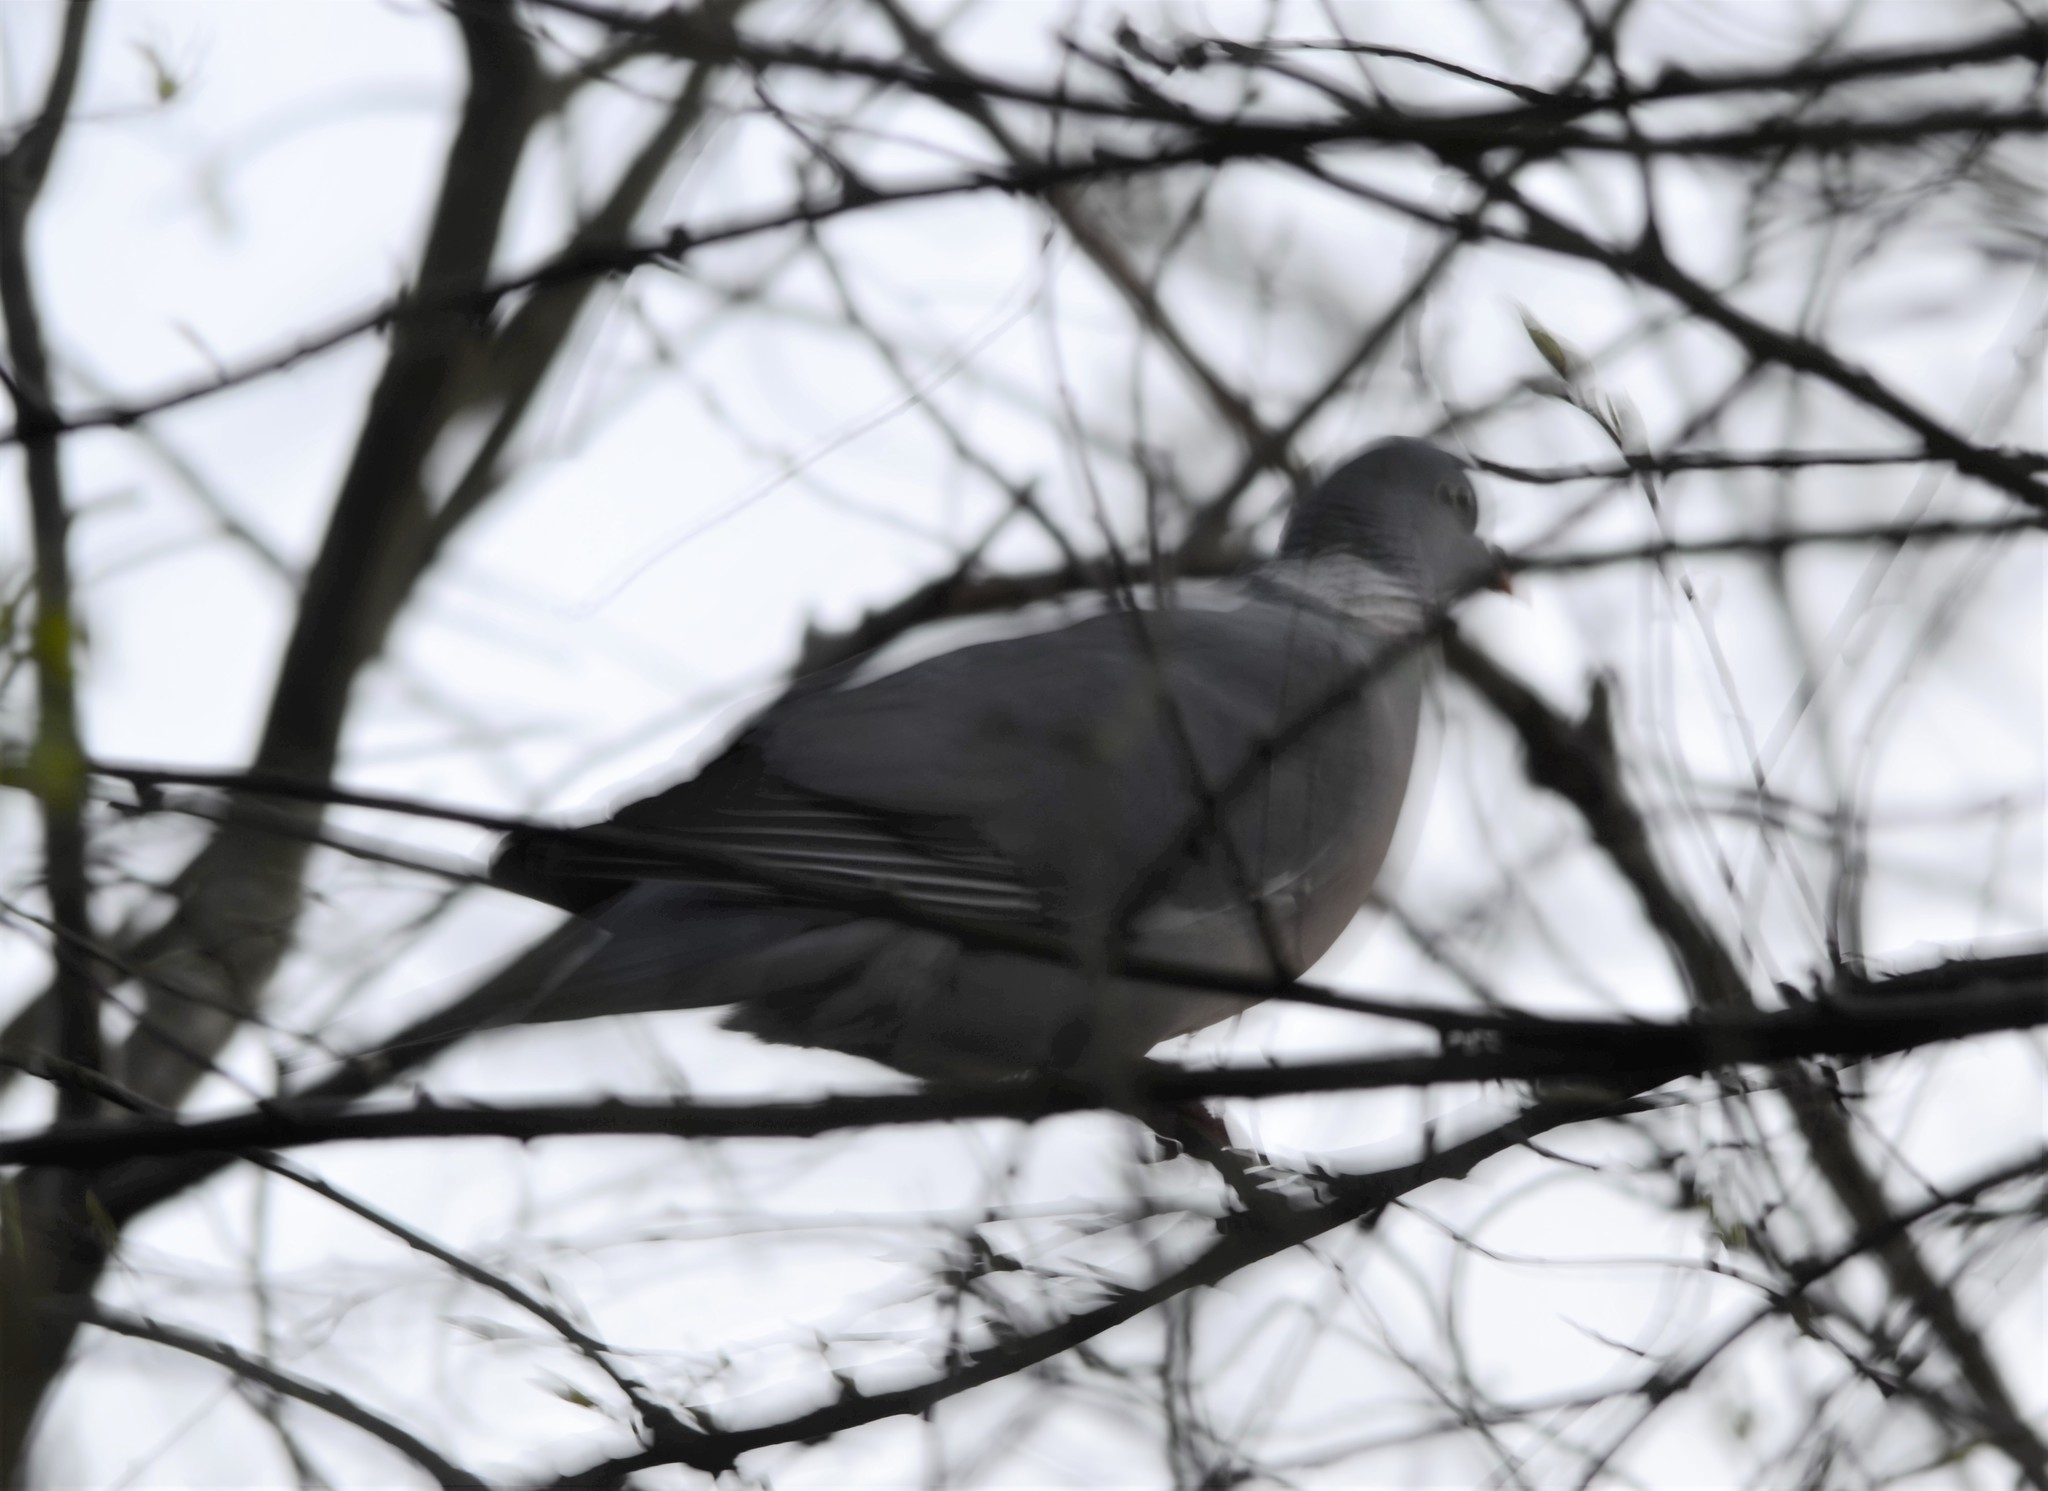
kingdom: Animalia
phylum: Chordata
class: Aves
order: Columbiformes
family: Columbidae
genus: Columba
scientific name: Columba palumbus
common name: Common wood pigeon
